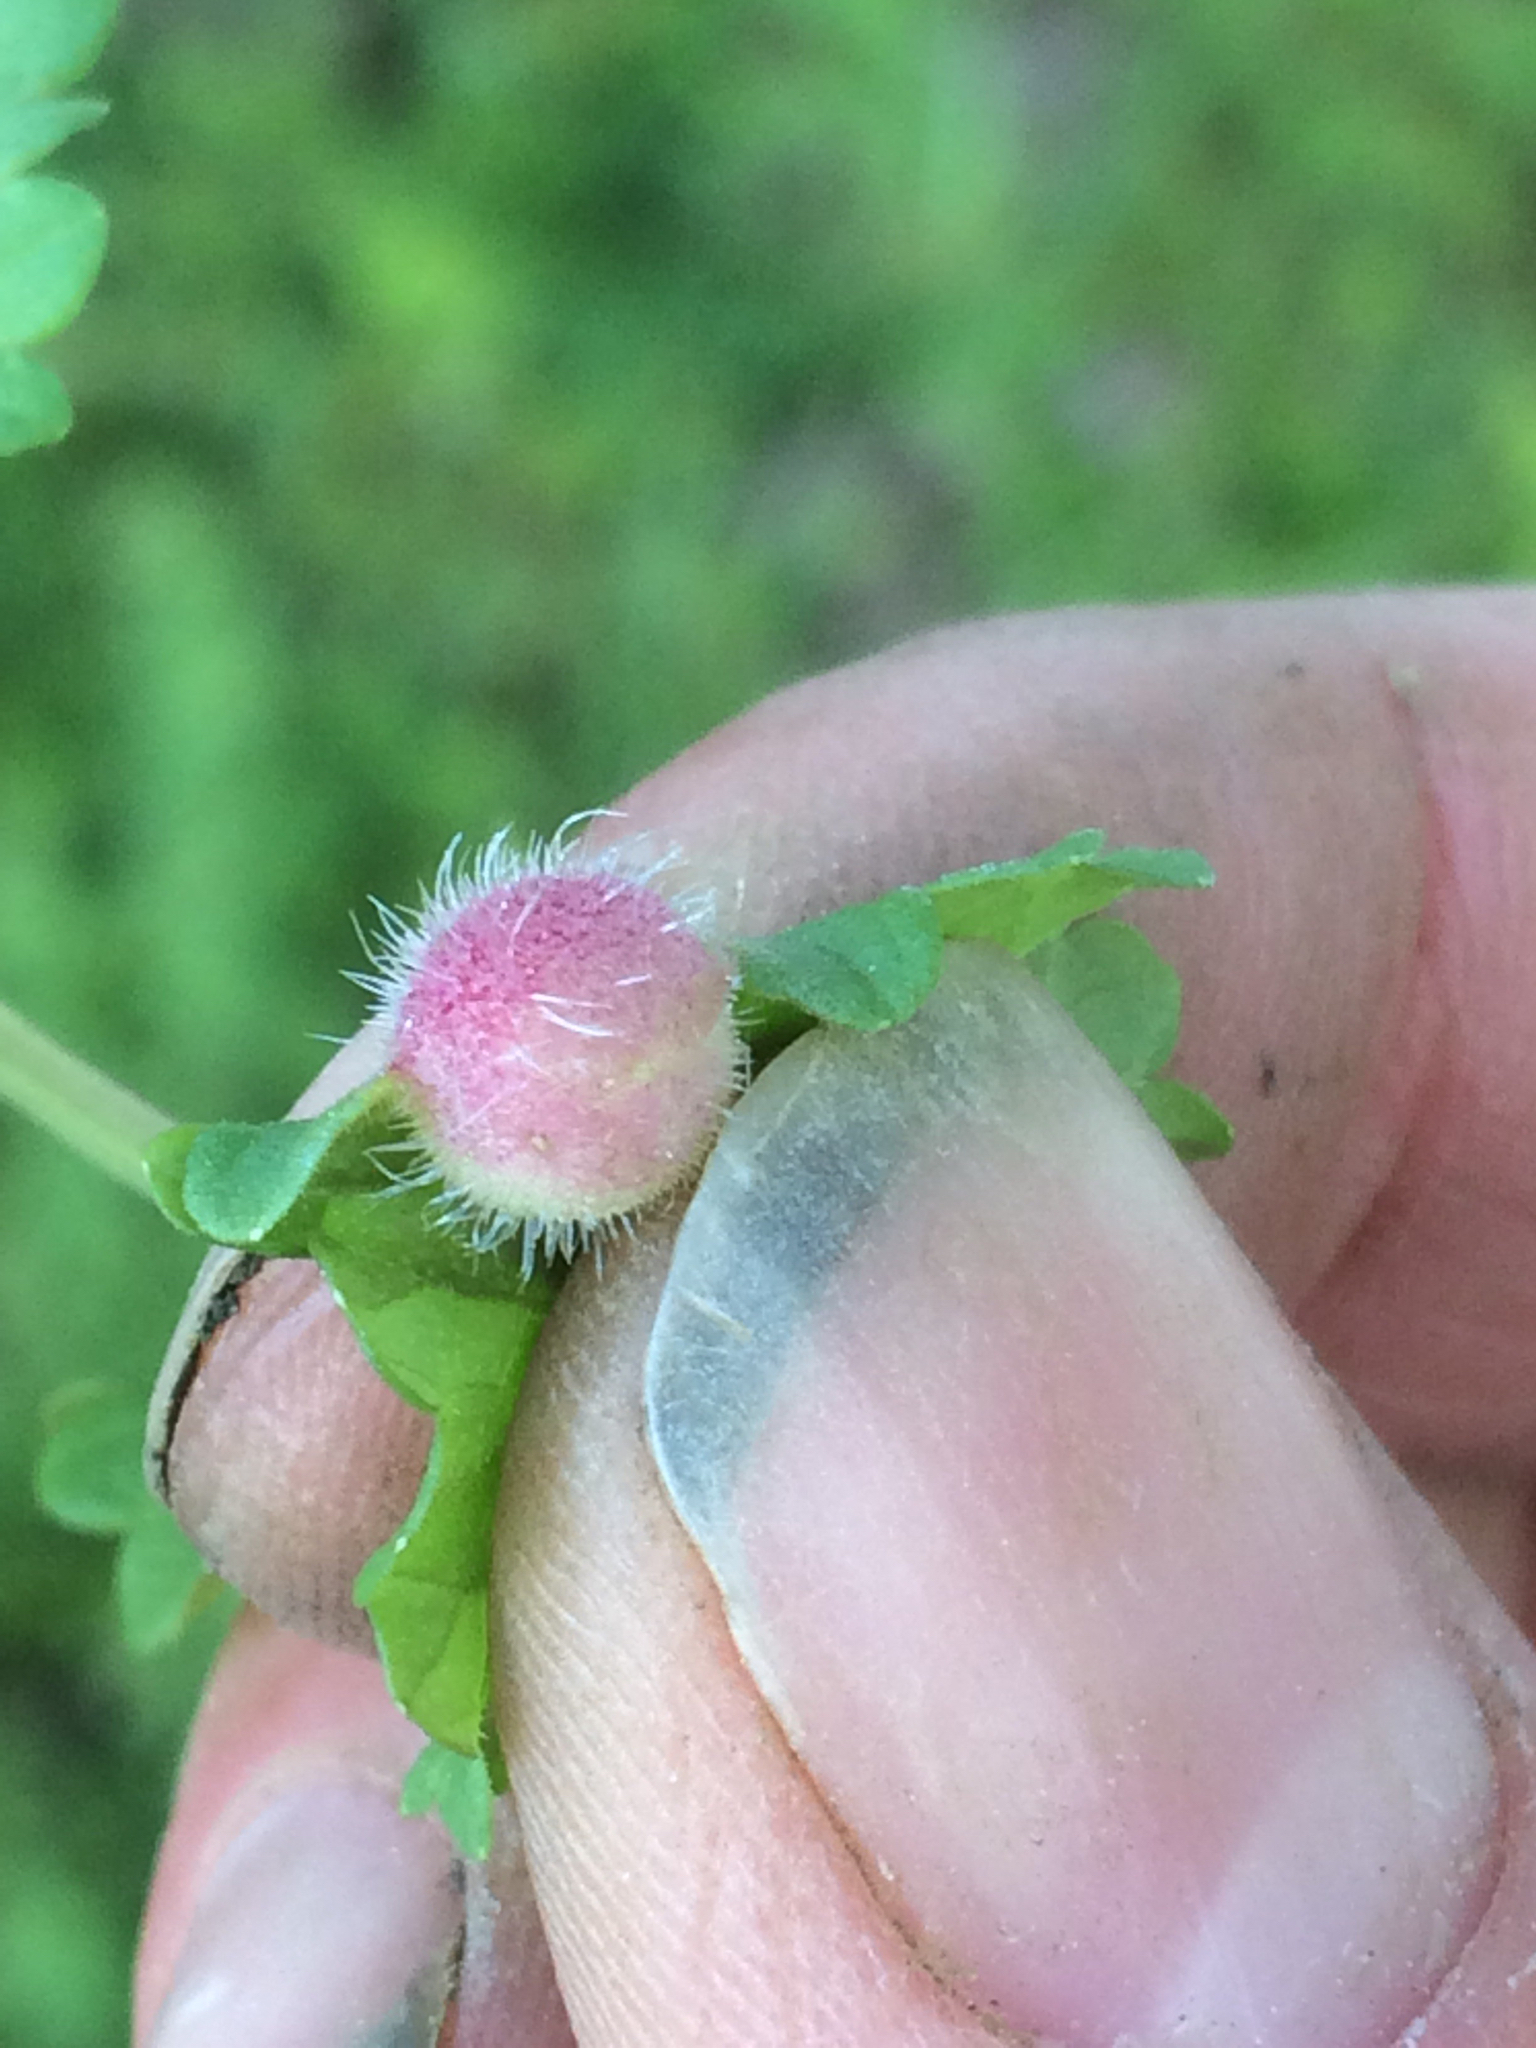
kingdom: Animalia
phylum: Arthropoda
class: Insecta
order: Hymenoptera
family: Cynipidae
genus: Liposthenes
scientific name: Liposthenes glechomae
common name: Gall wasp
